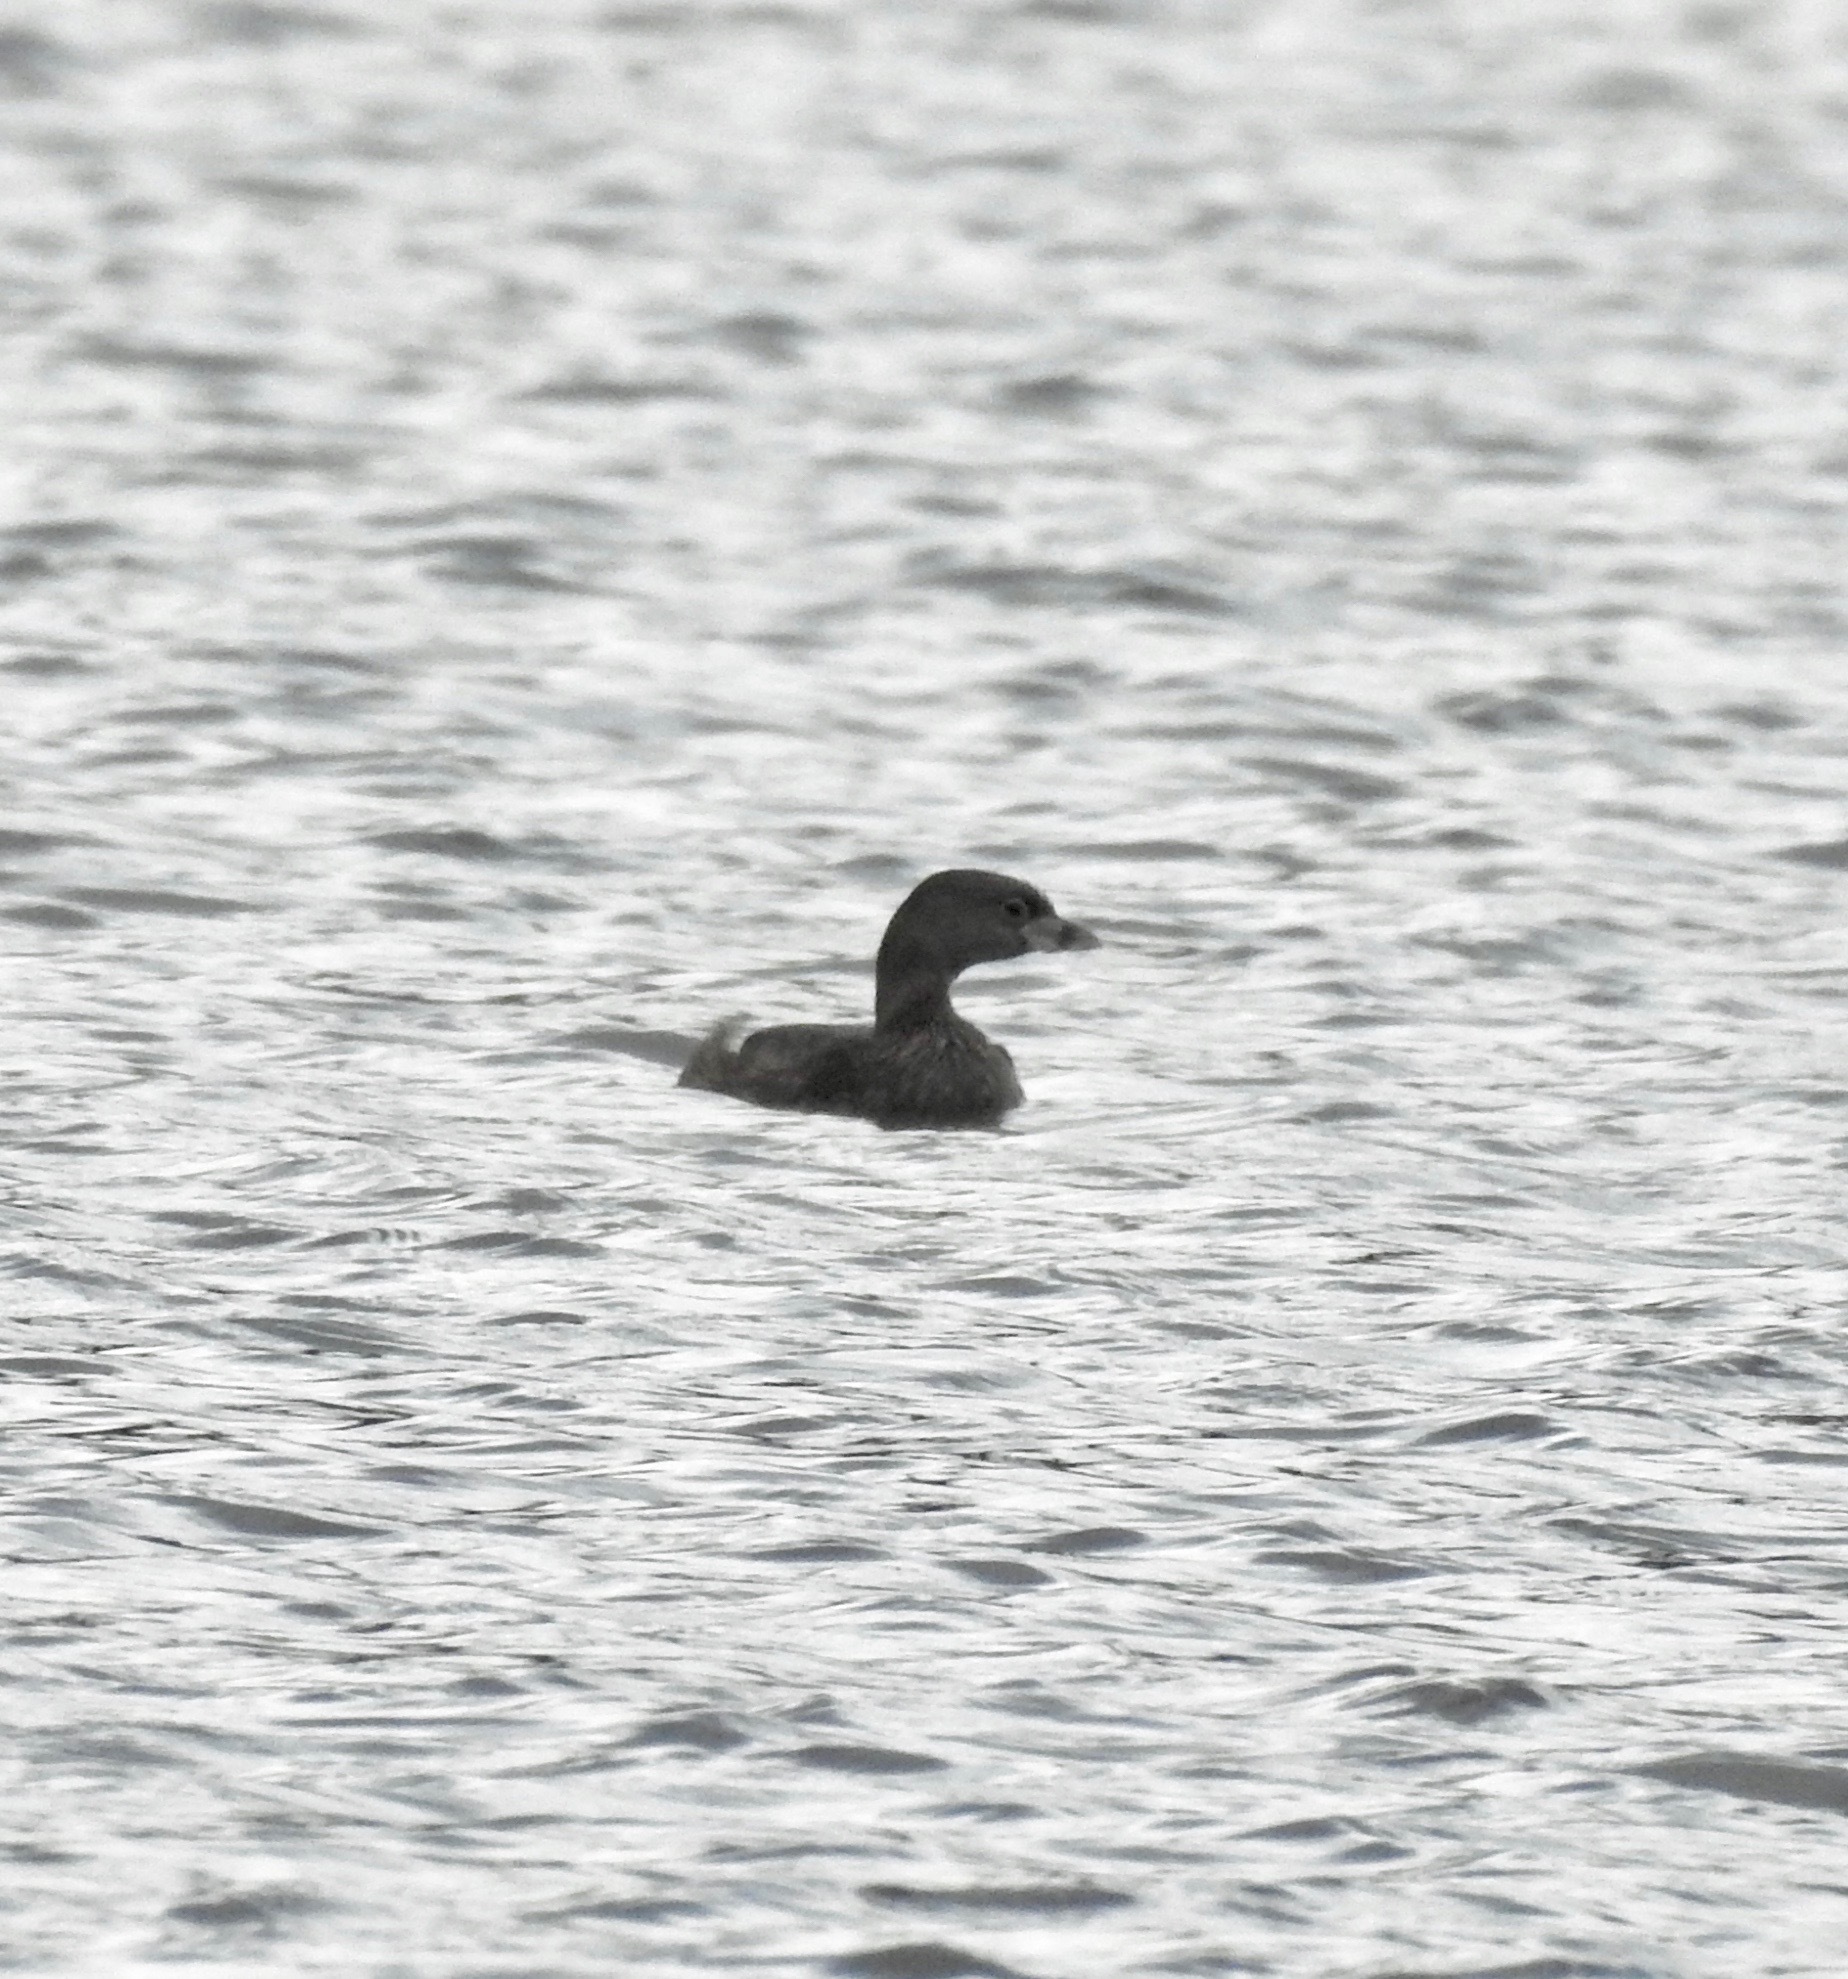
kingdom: Animalia
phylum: Chordata
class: Aves
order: Podicipediformes
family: Podicipedidae
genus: Podilymbus
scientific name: Podilymbus podiceps
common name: Pied-billed grebe
